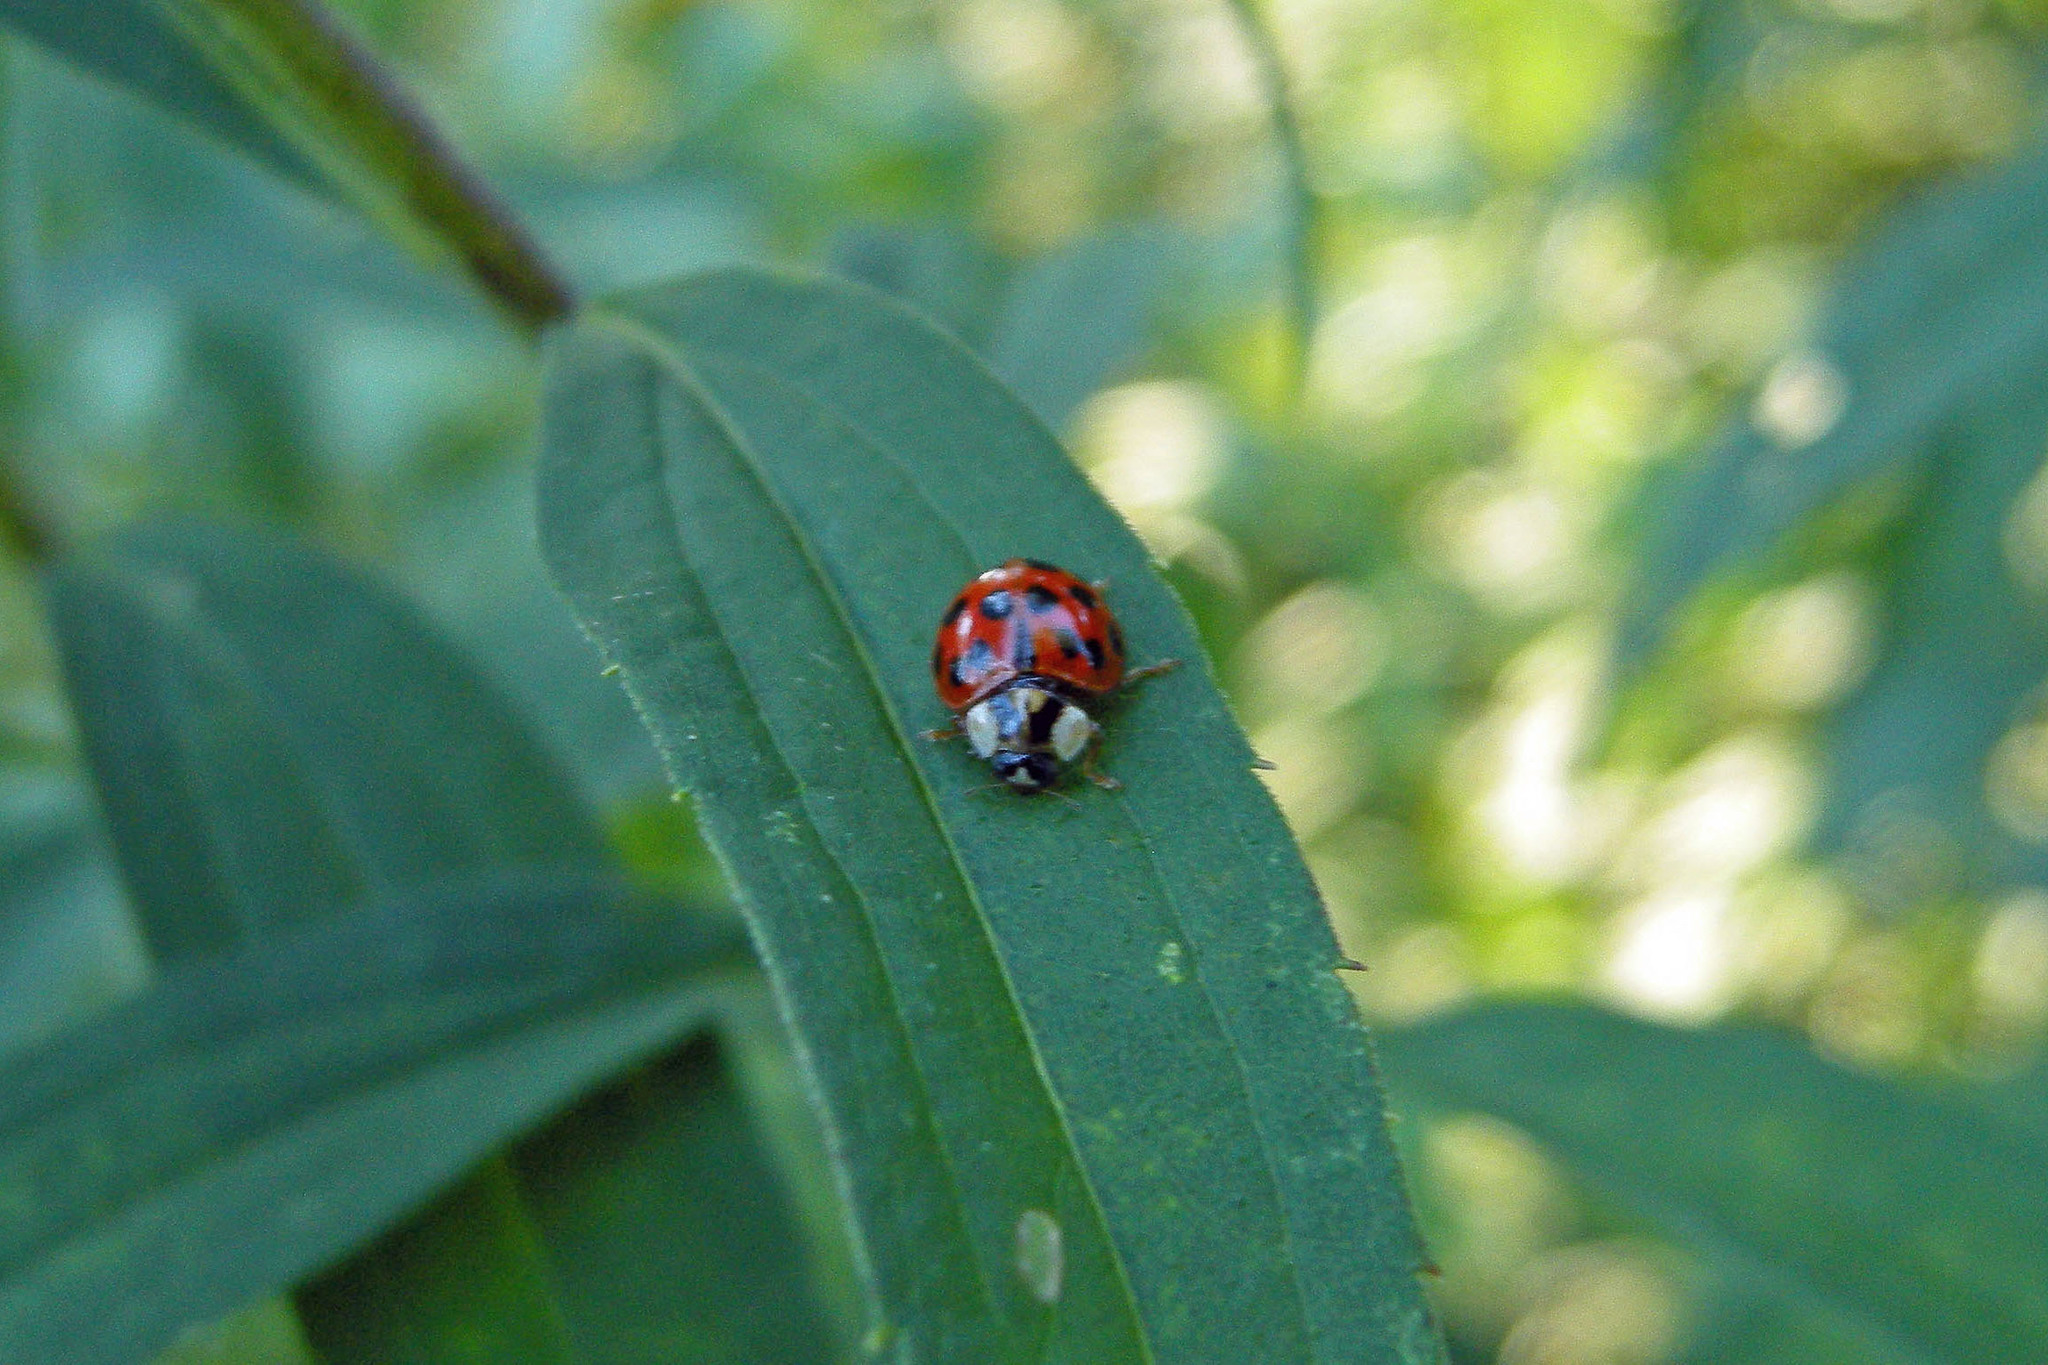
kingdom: Animalia
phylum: Arthropoda
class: Insecta
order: Coleoptera
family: Coccinellidae
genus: Harmonia
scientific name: Harmonia axyridis
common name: Harlequin ladybird
